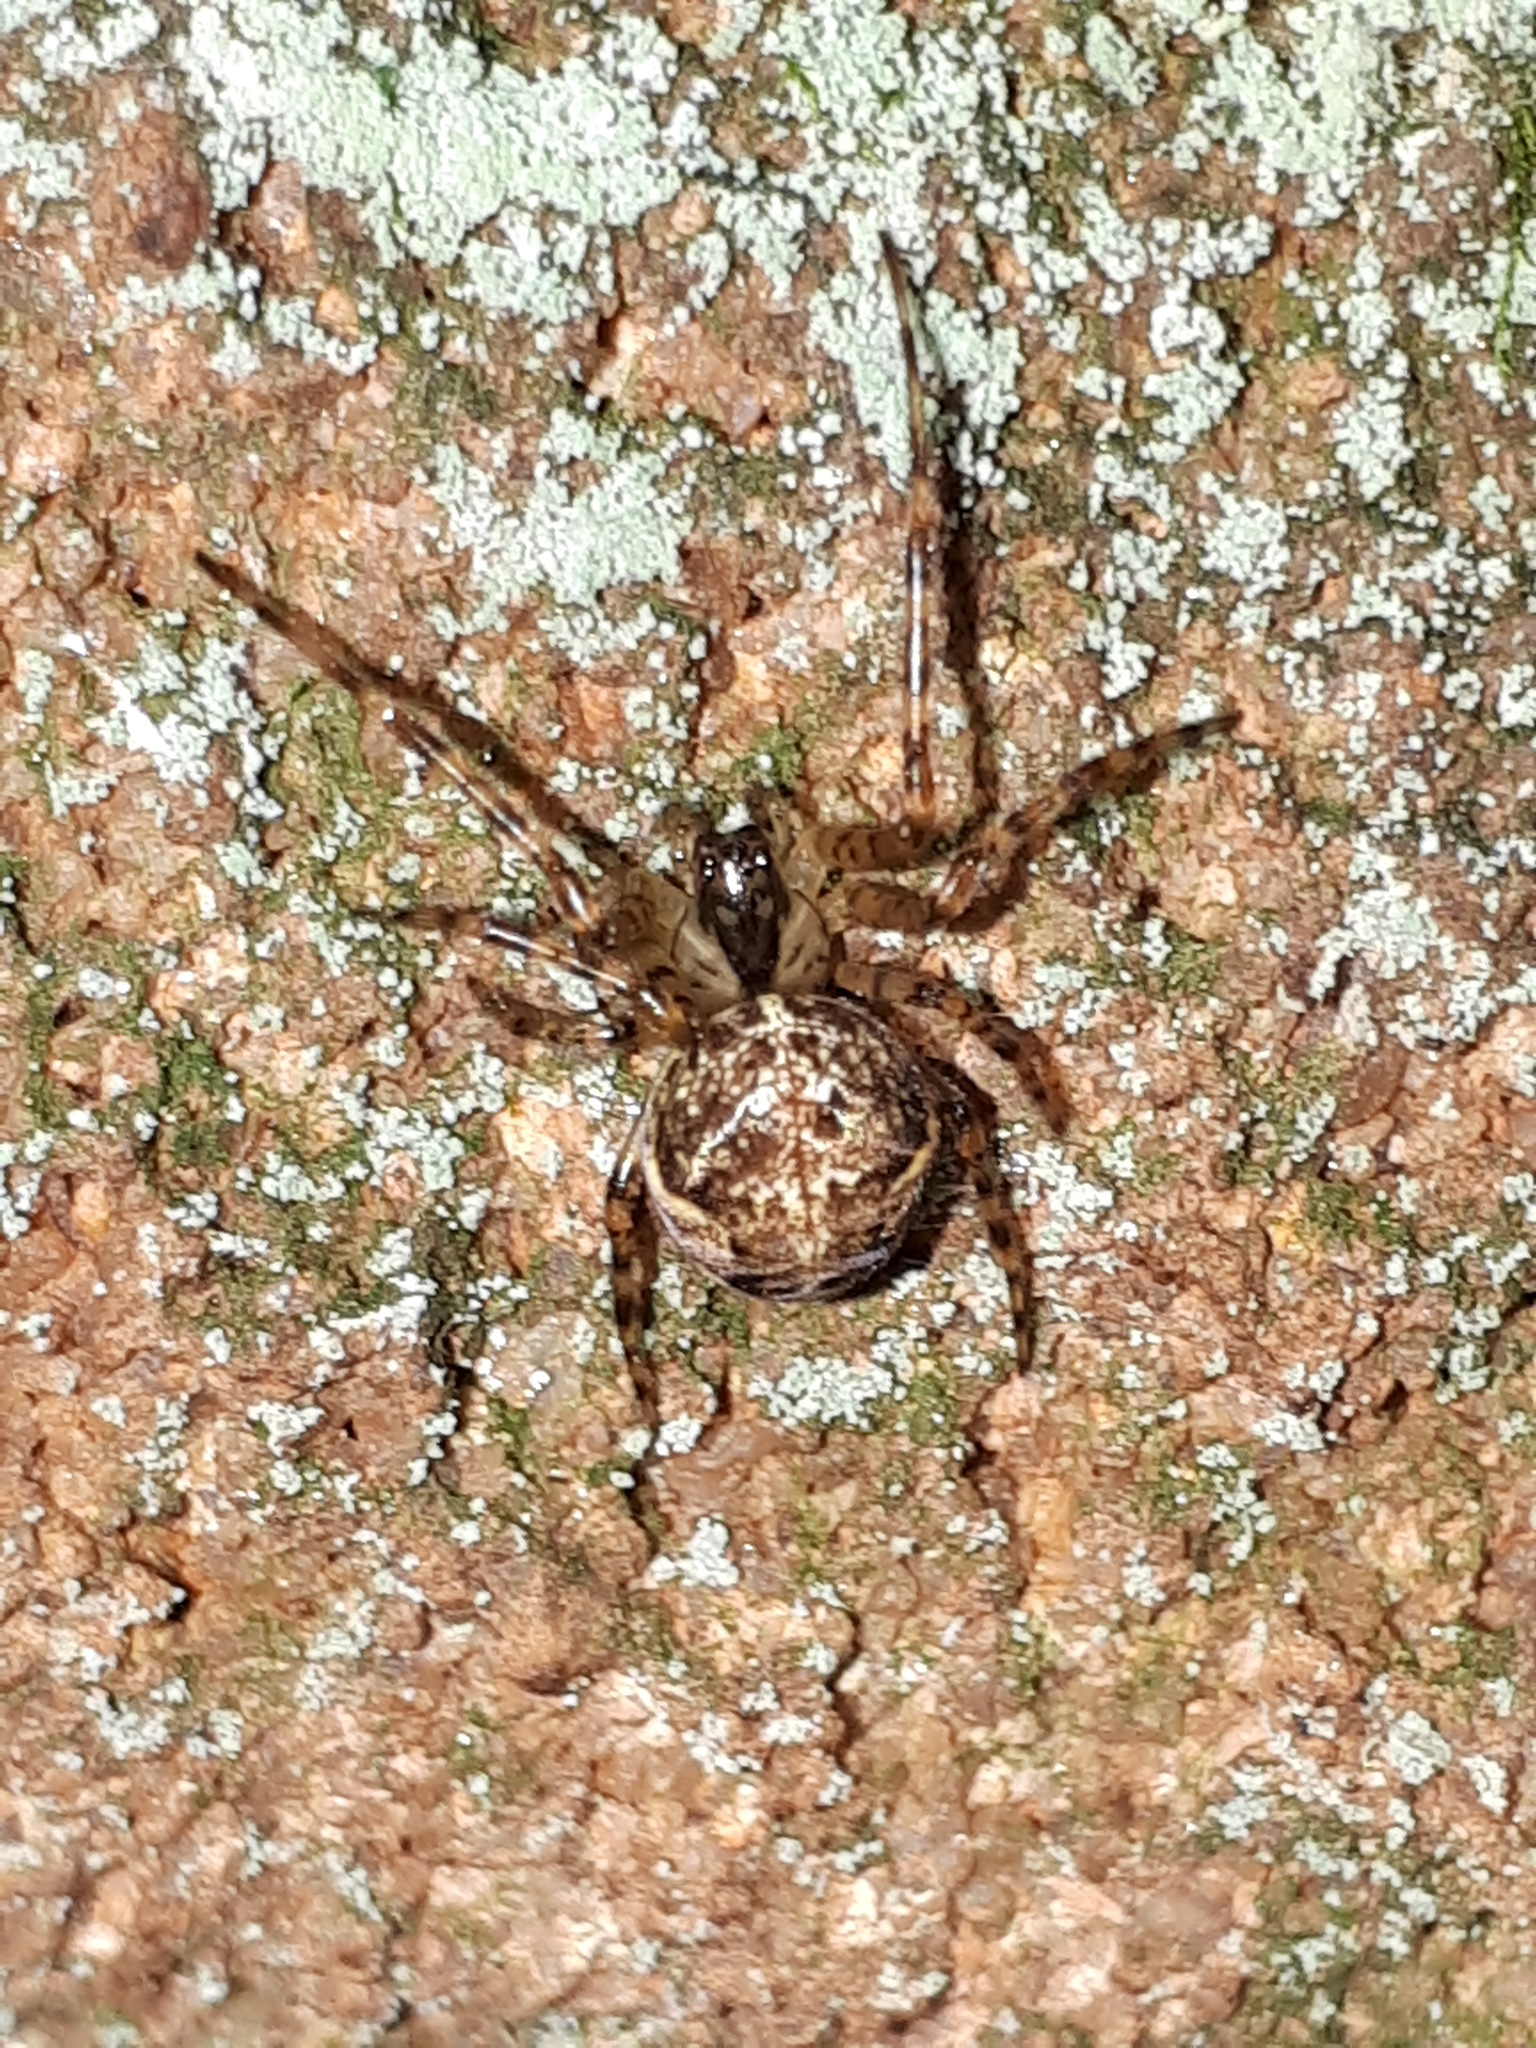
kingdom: Animalia
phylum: Arthropoda
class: Arachnida
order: Araneae
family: Tetragnathidae
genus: Metellina
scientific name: Metellina merianae
